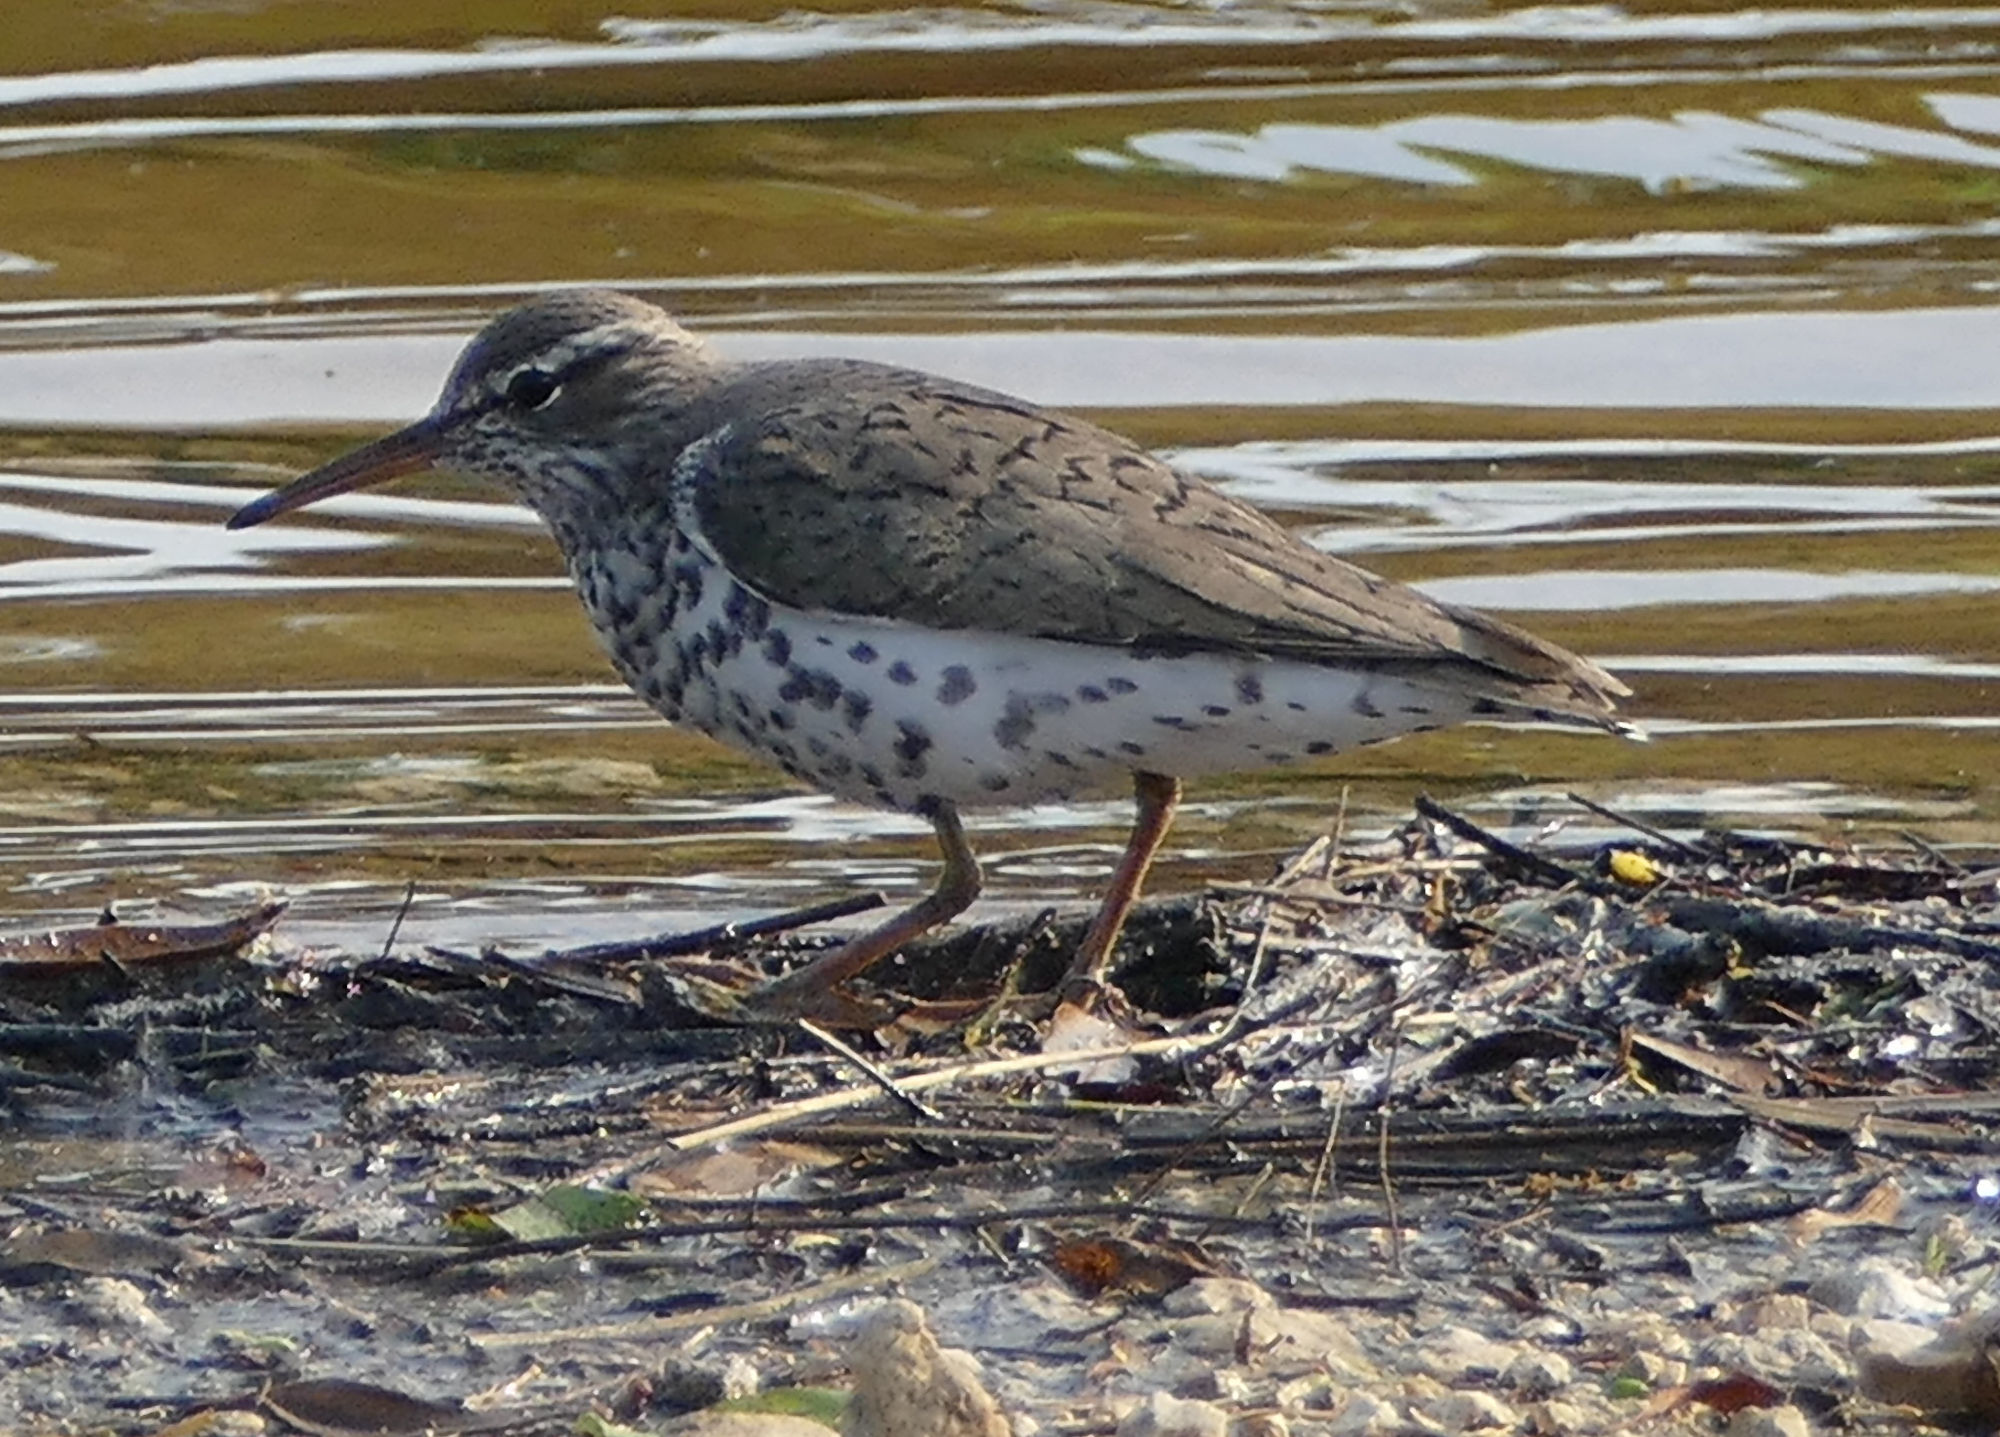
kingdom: Animalia
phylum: Chordata
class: Aves
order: Charadriiformes
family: Scolopacidae
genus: Actitis
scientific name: Actitis macularius
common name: Spotted sandpiper
